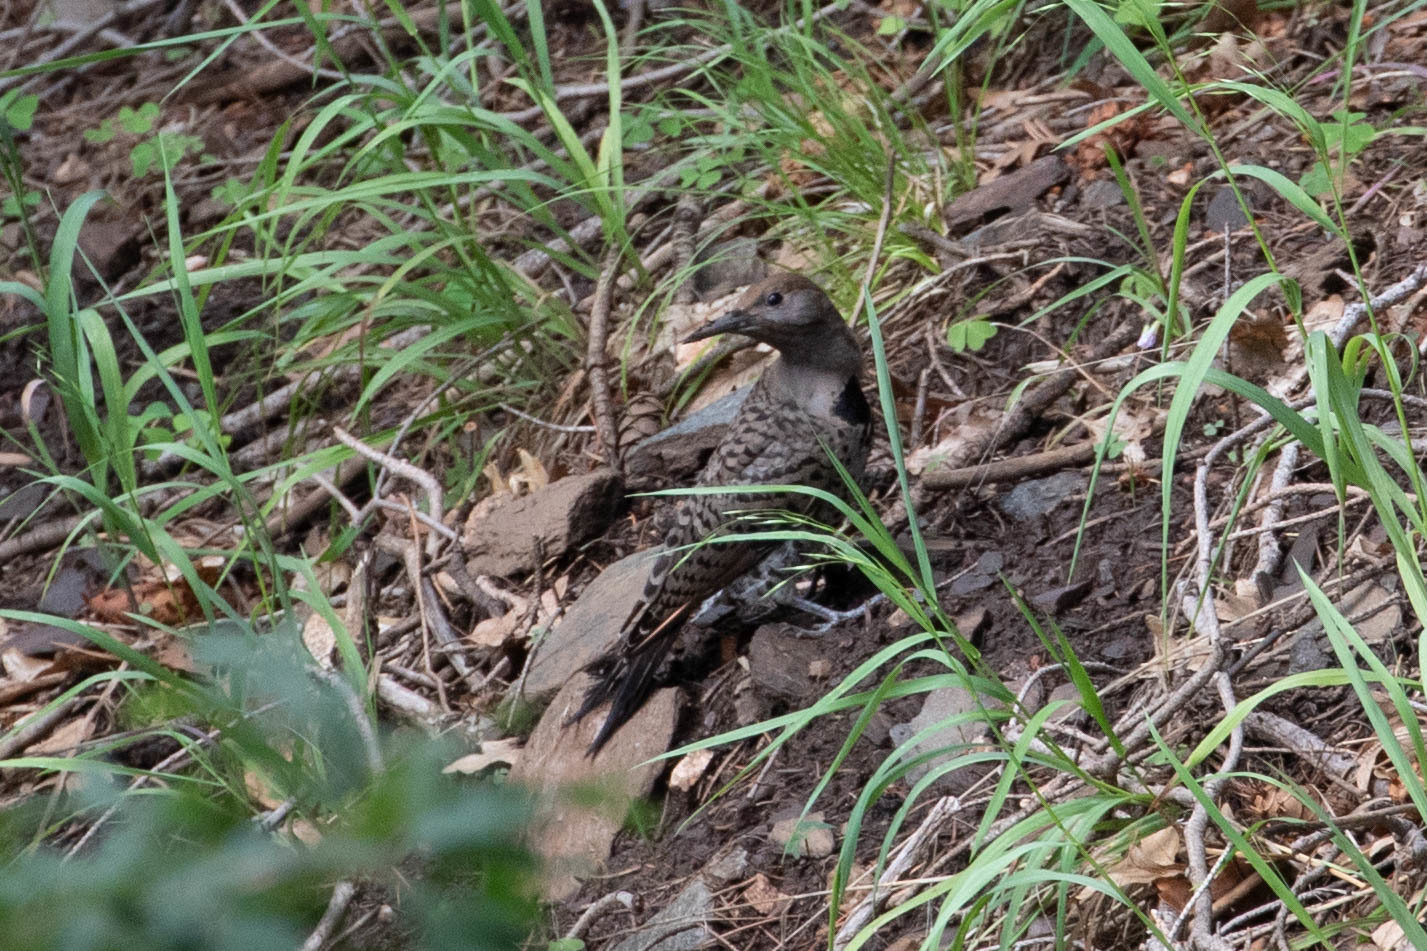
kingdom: Animalia
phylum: Chordata
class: Aves
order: Piciformes
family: Picidae
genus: Colaptes
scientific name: Colaptes auratus
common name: Northern flicker
